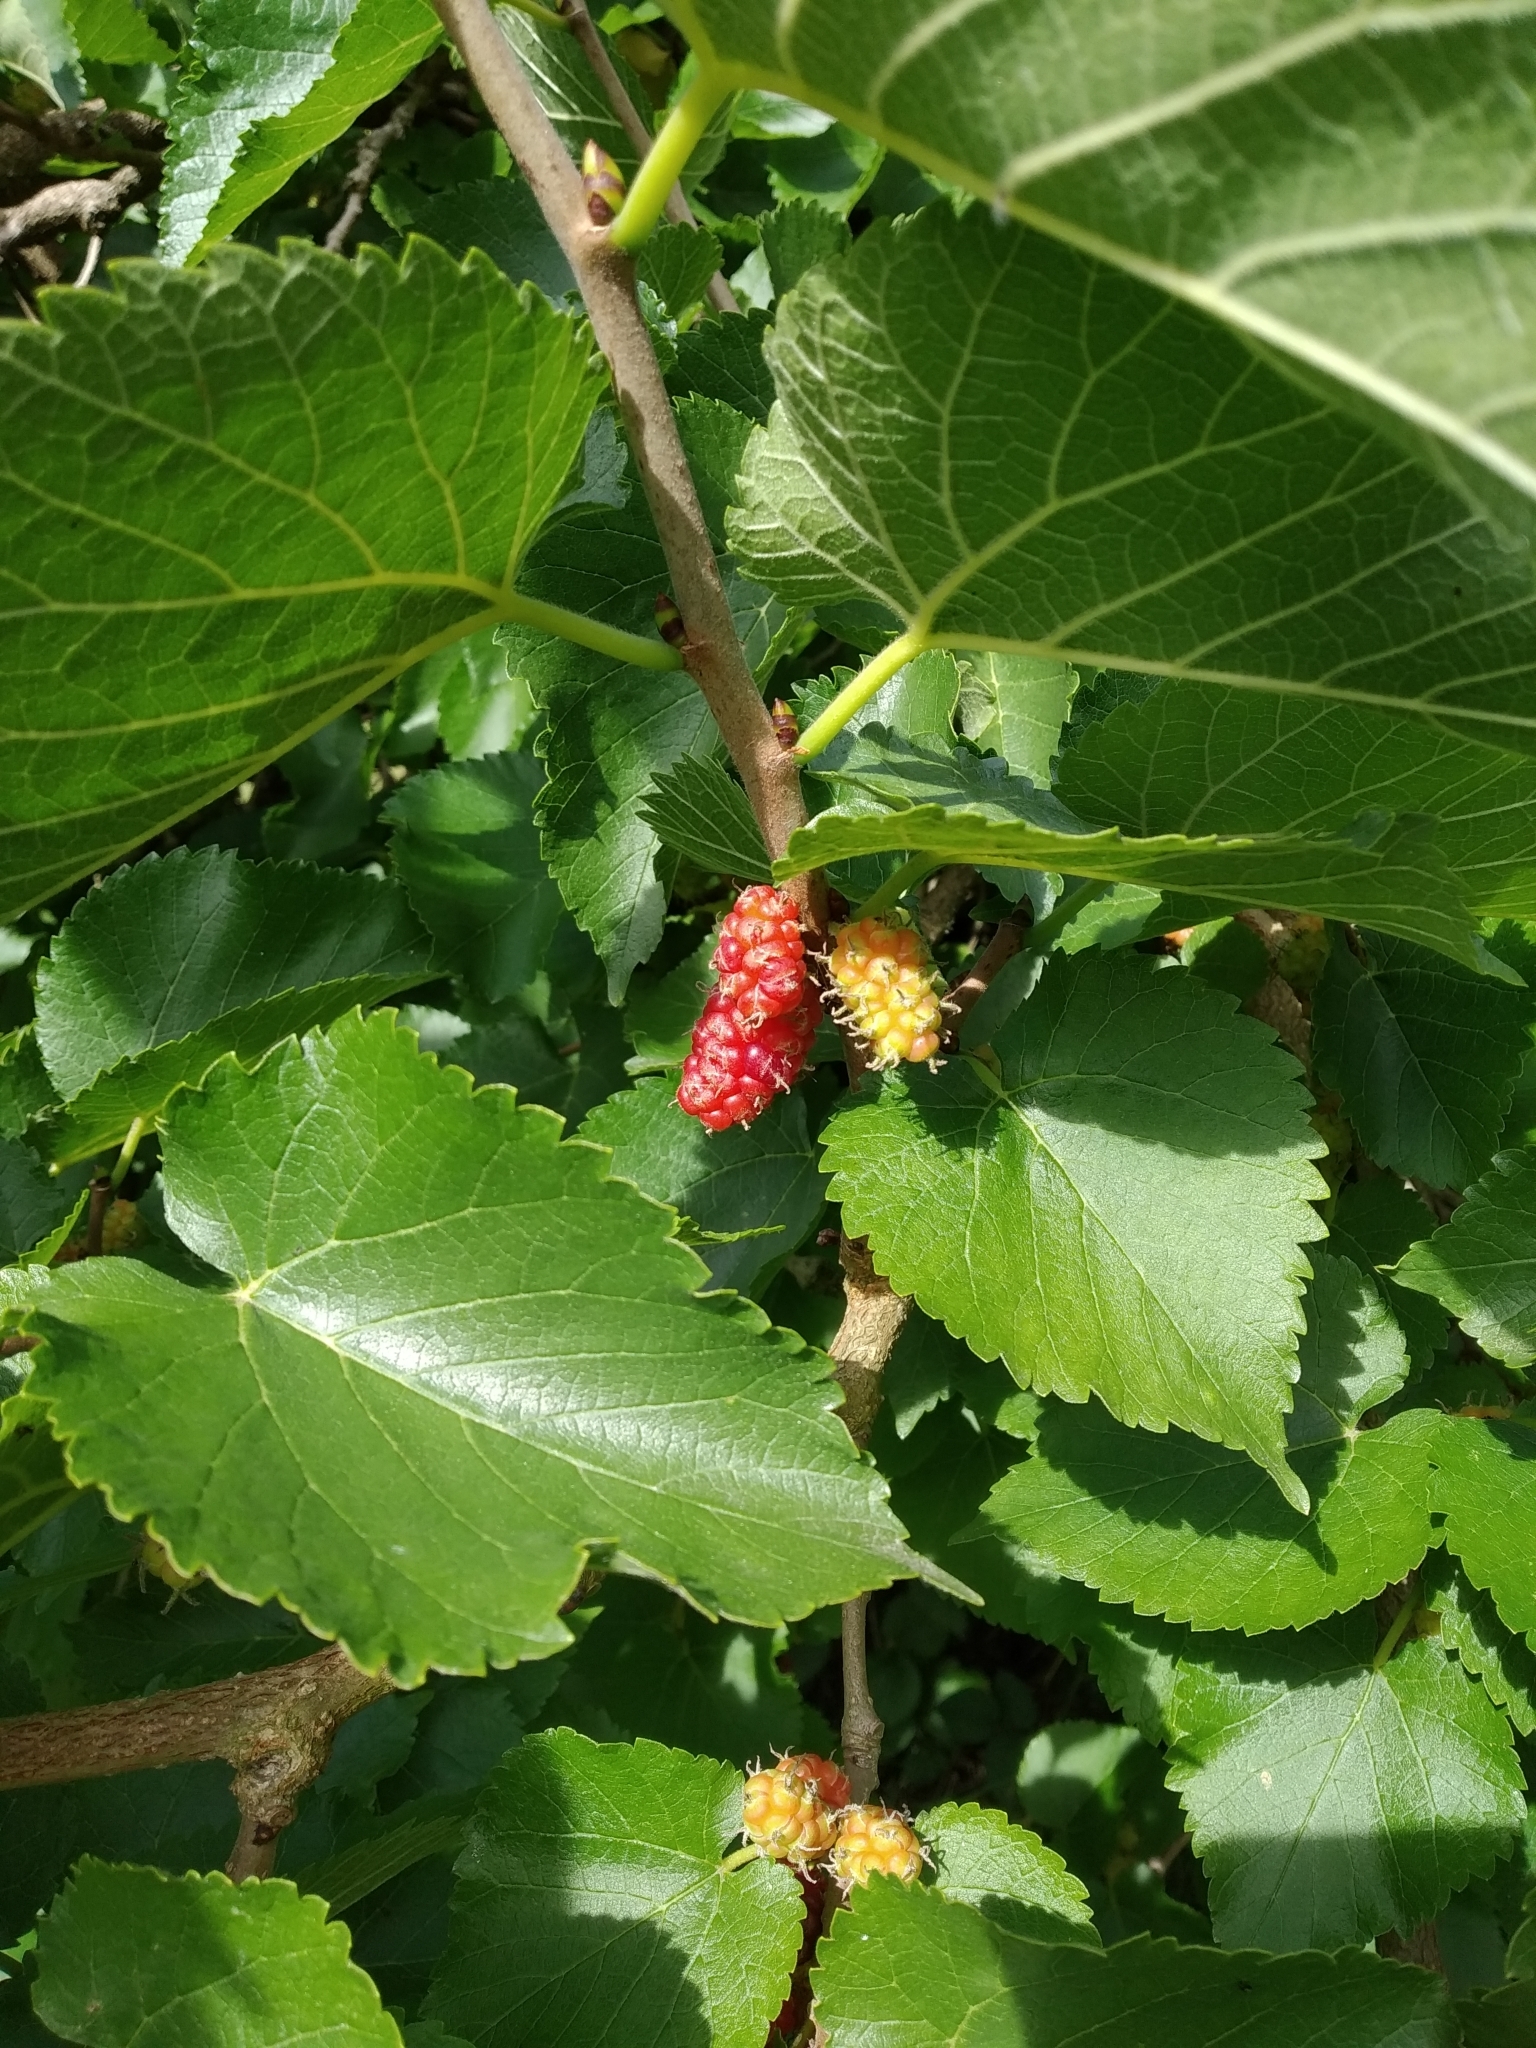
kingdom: Plantae
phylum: Tracheophyta
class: Magnoliopsida
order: Rosales
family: Moraceae
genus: Morus
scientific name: Morus nigra
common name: Black mulberry
